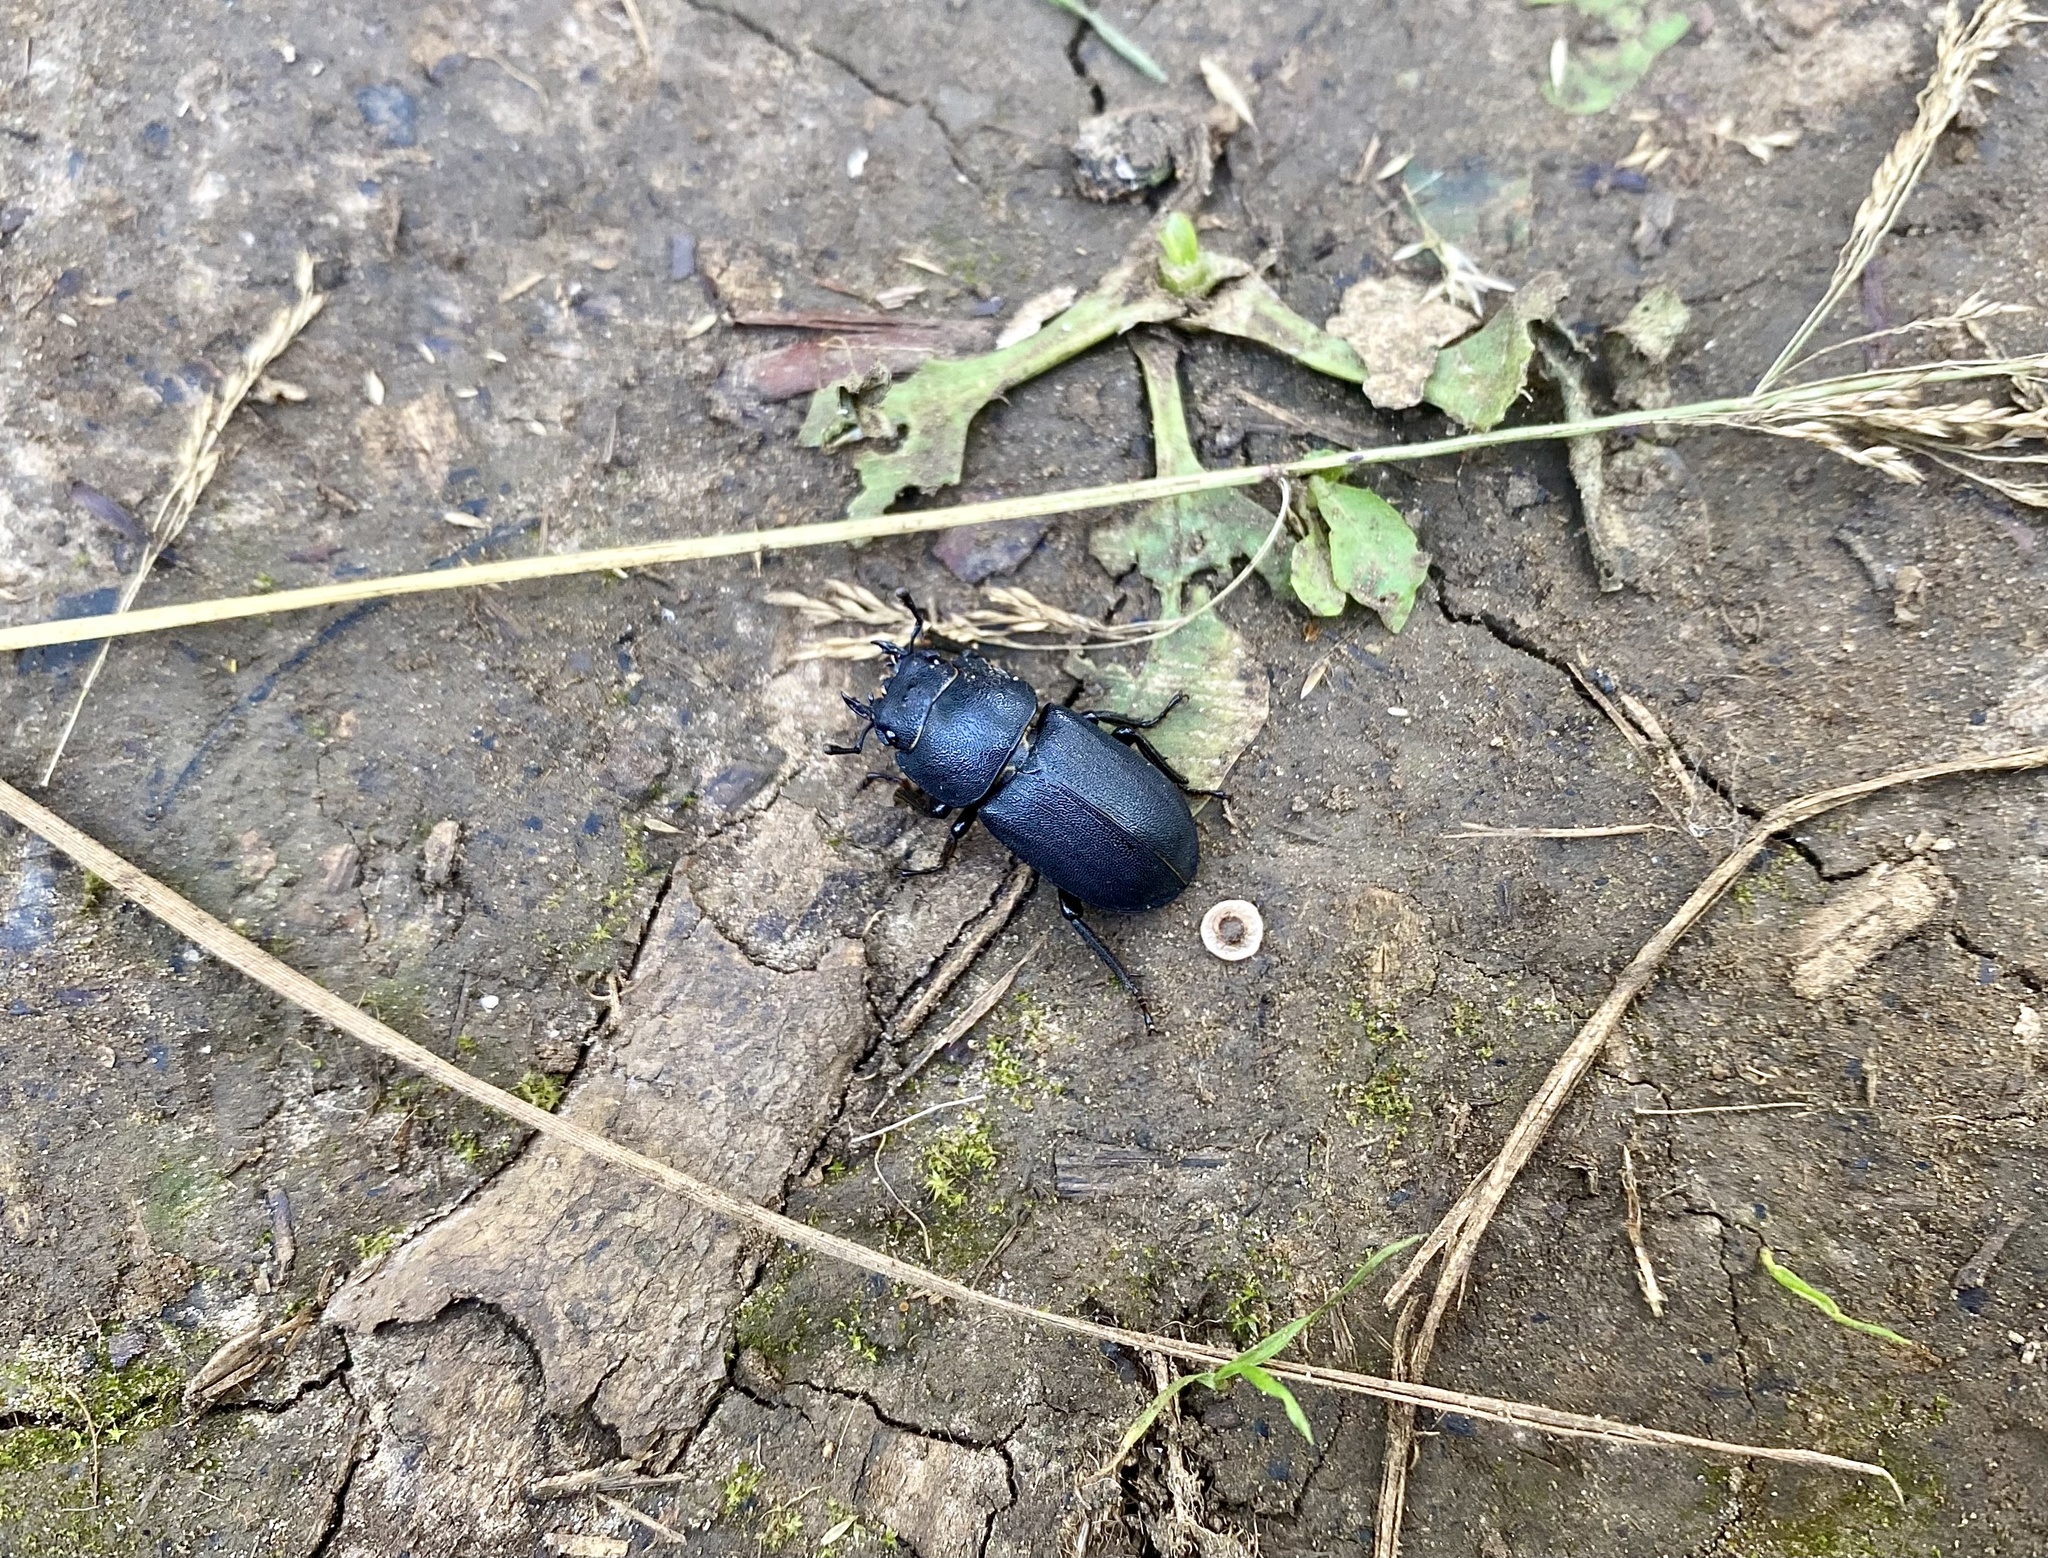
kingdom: Animalia
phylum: Arthropoda
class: Insecta
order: Coleoptera
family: Lucanidae
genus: Dorcus
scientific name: Dorcus parallelipipedus
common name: Lesser stag beetle
